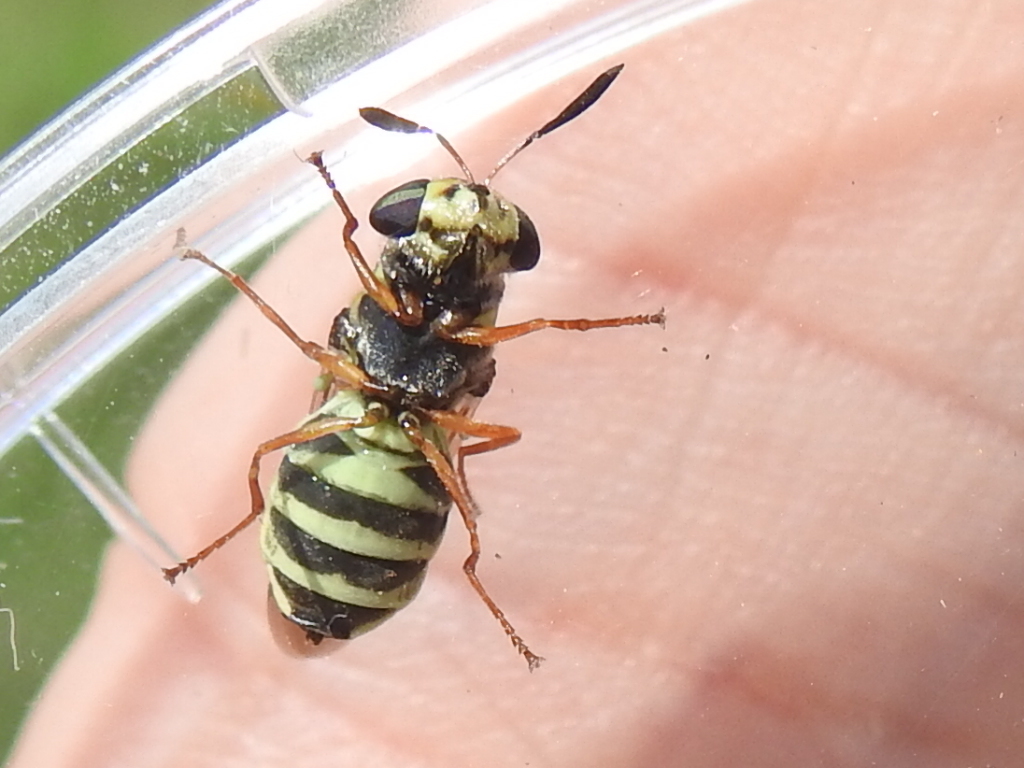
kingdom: Animalia
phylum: Arthropoda
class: Insecta
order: Diptera
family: Stratiomyidae
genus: Hoplitimyia
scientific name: Hoplitimyia constans
